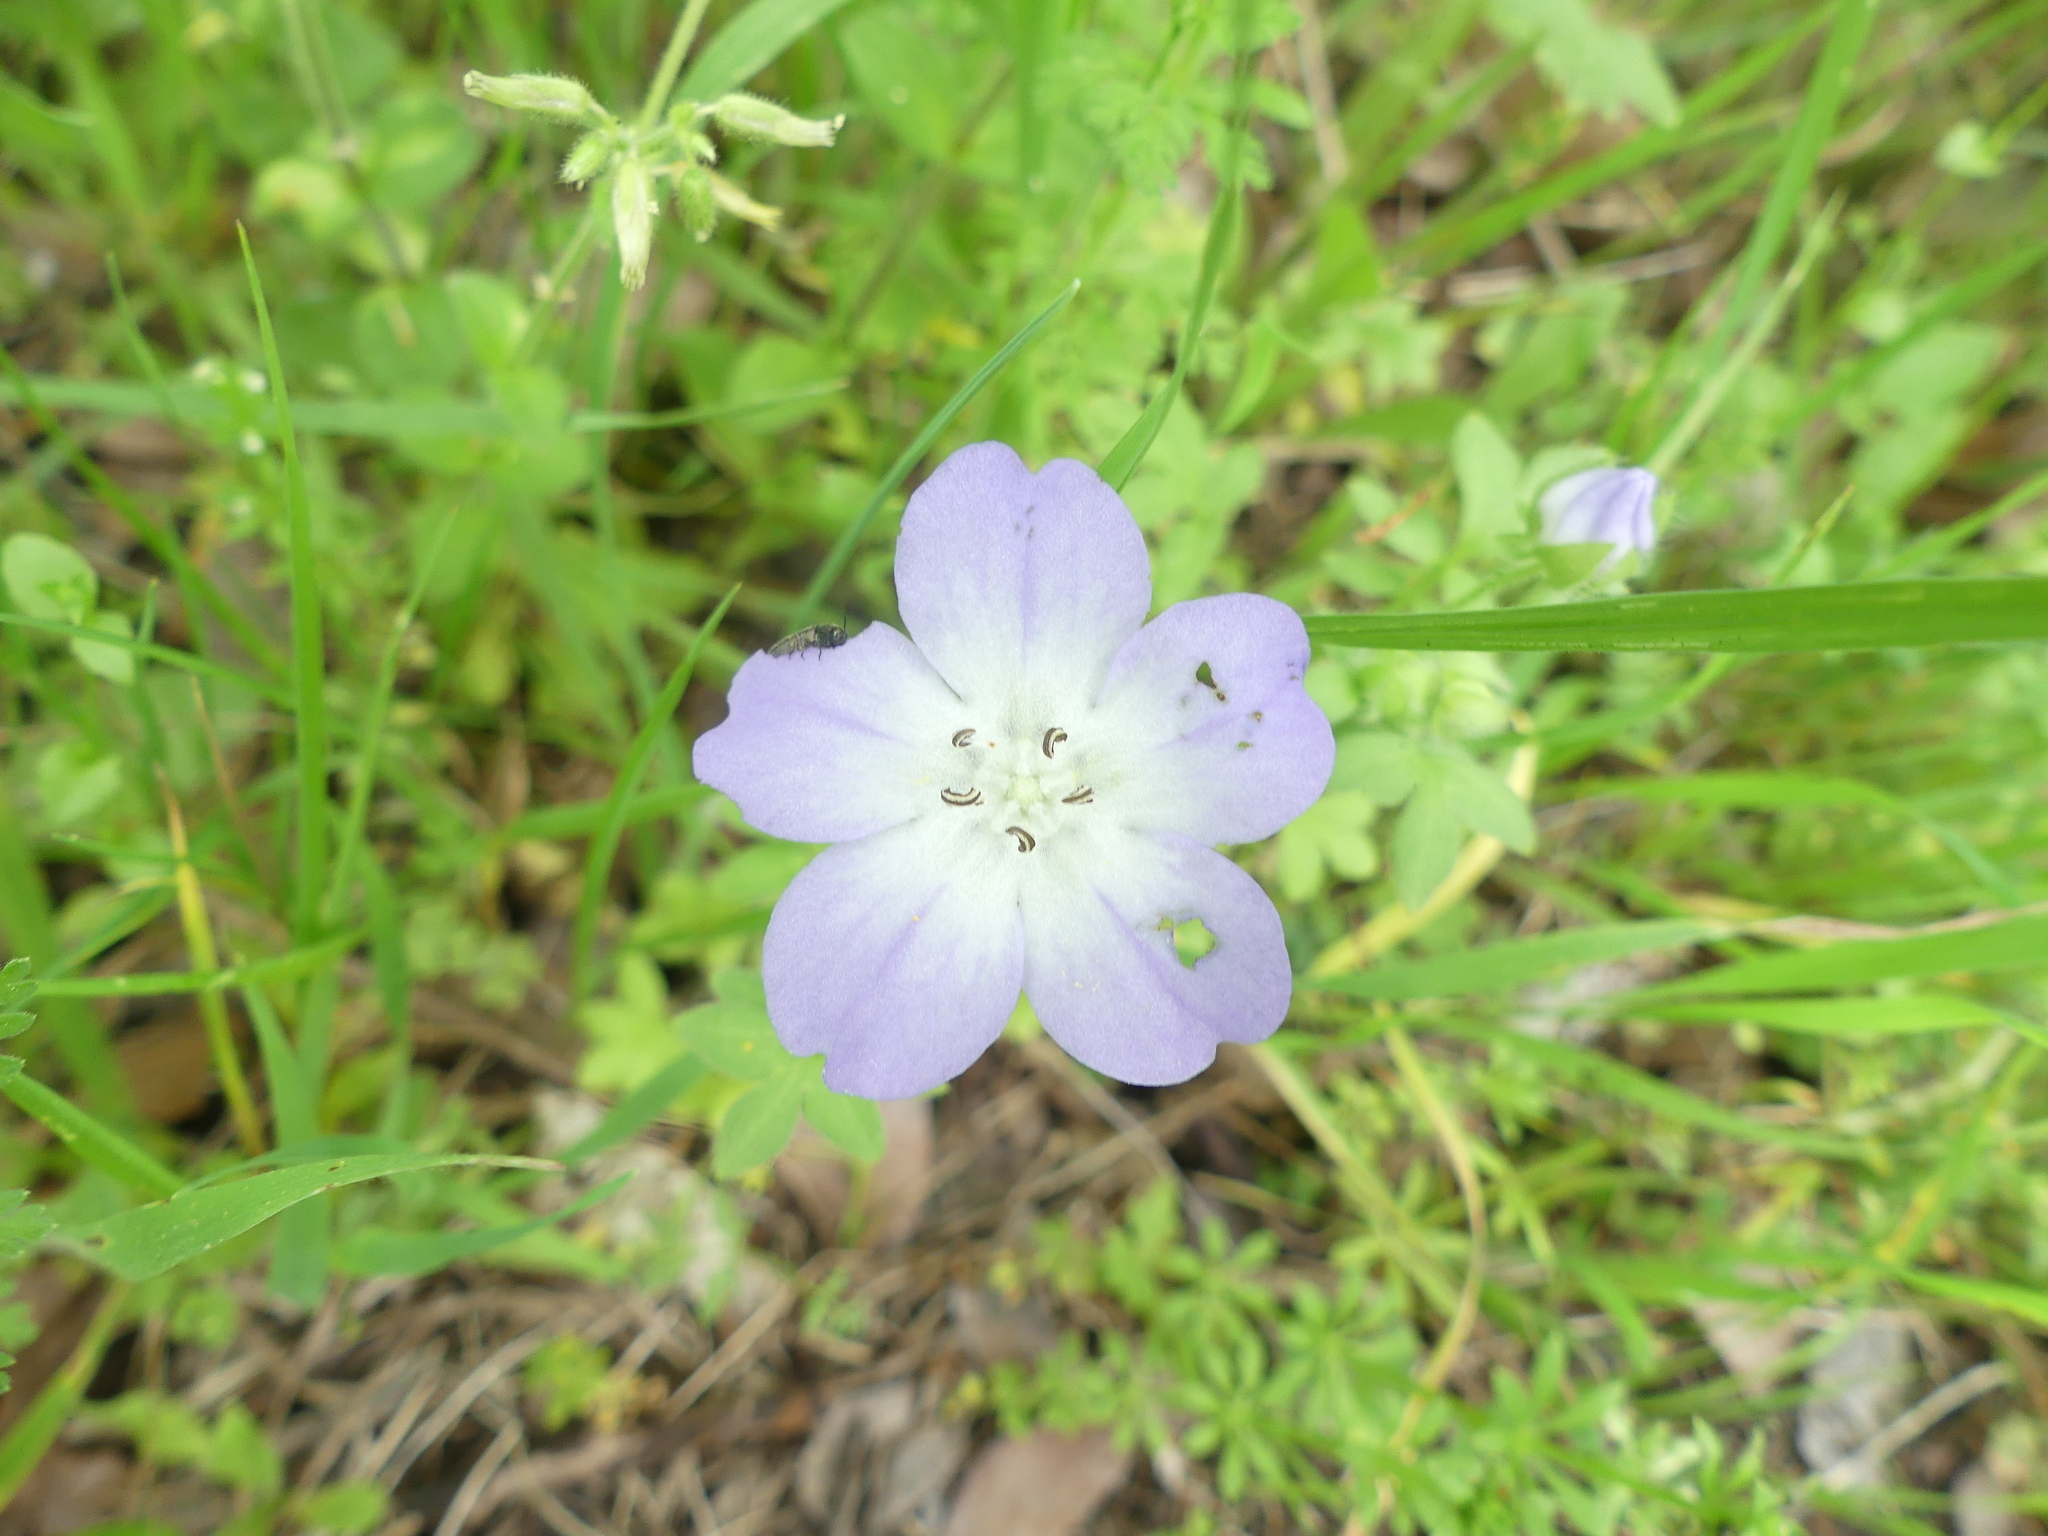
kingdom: Plantae
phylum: Tracheophyta
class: Magnoliopsida
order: Boraginales
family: Hydrophyllaceae
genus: Nemophila
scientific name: Nemophila phacelioides
